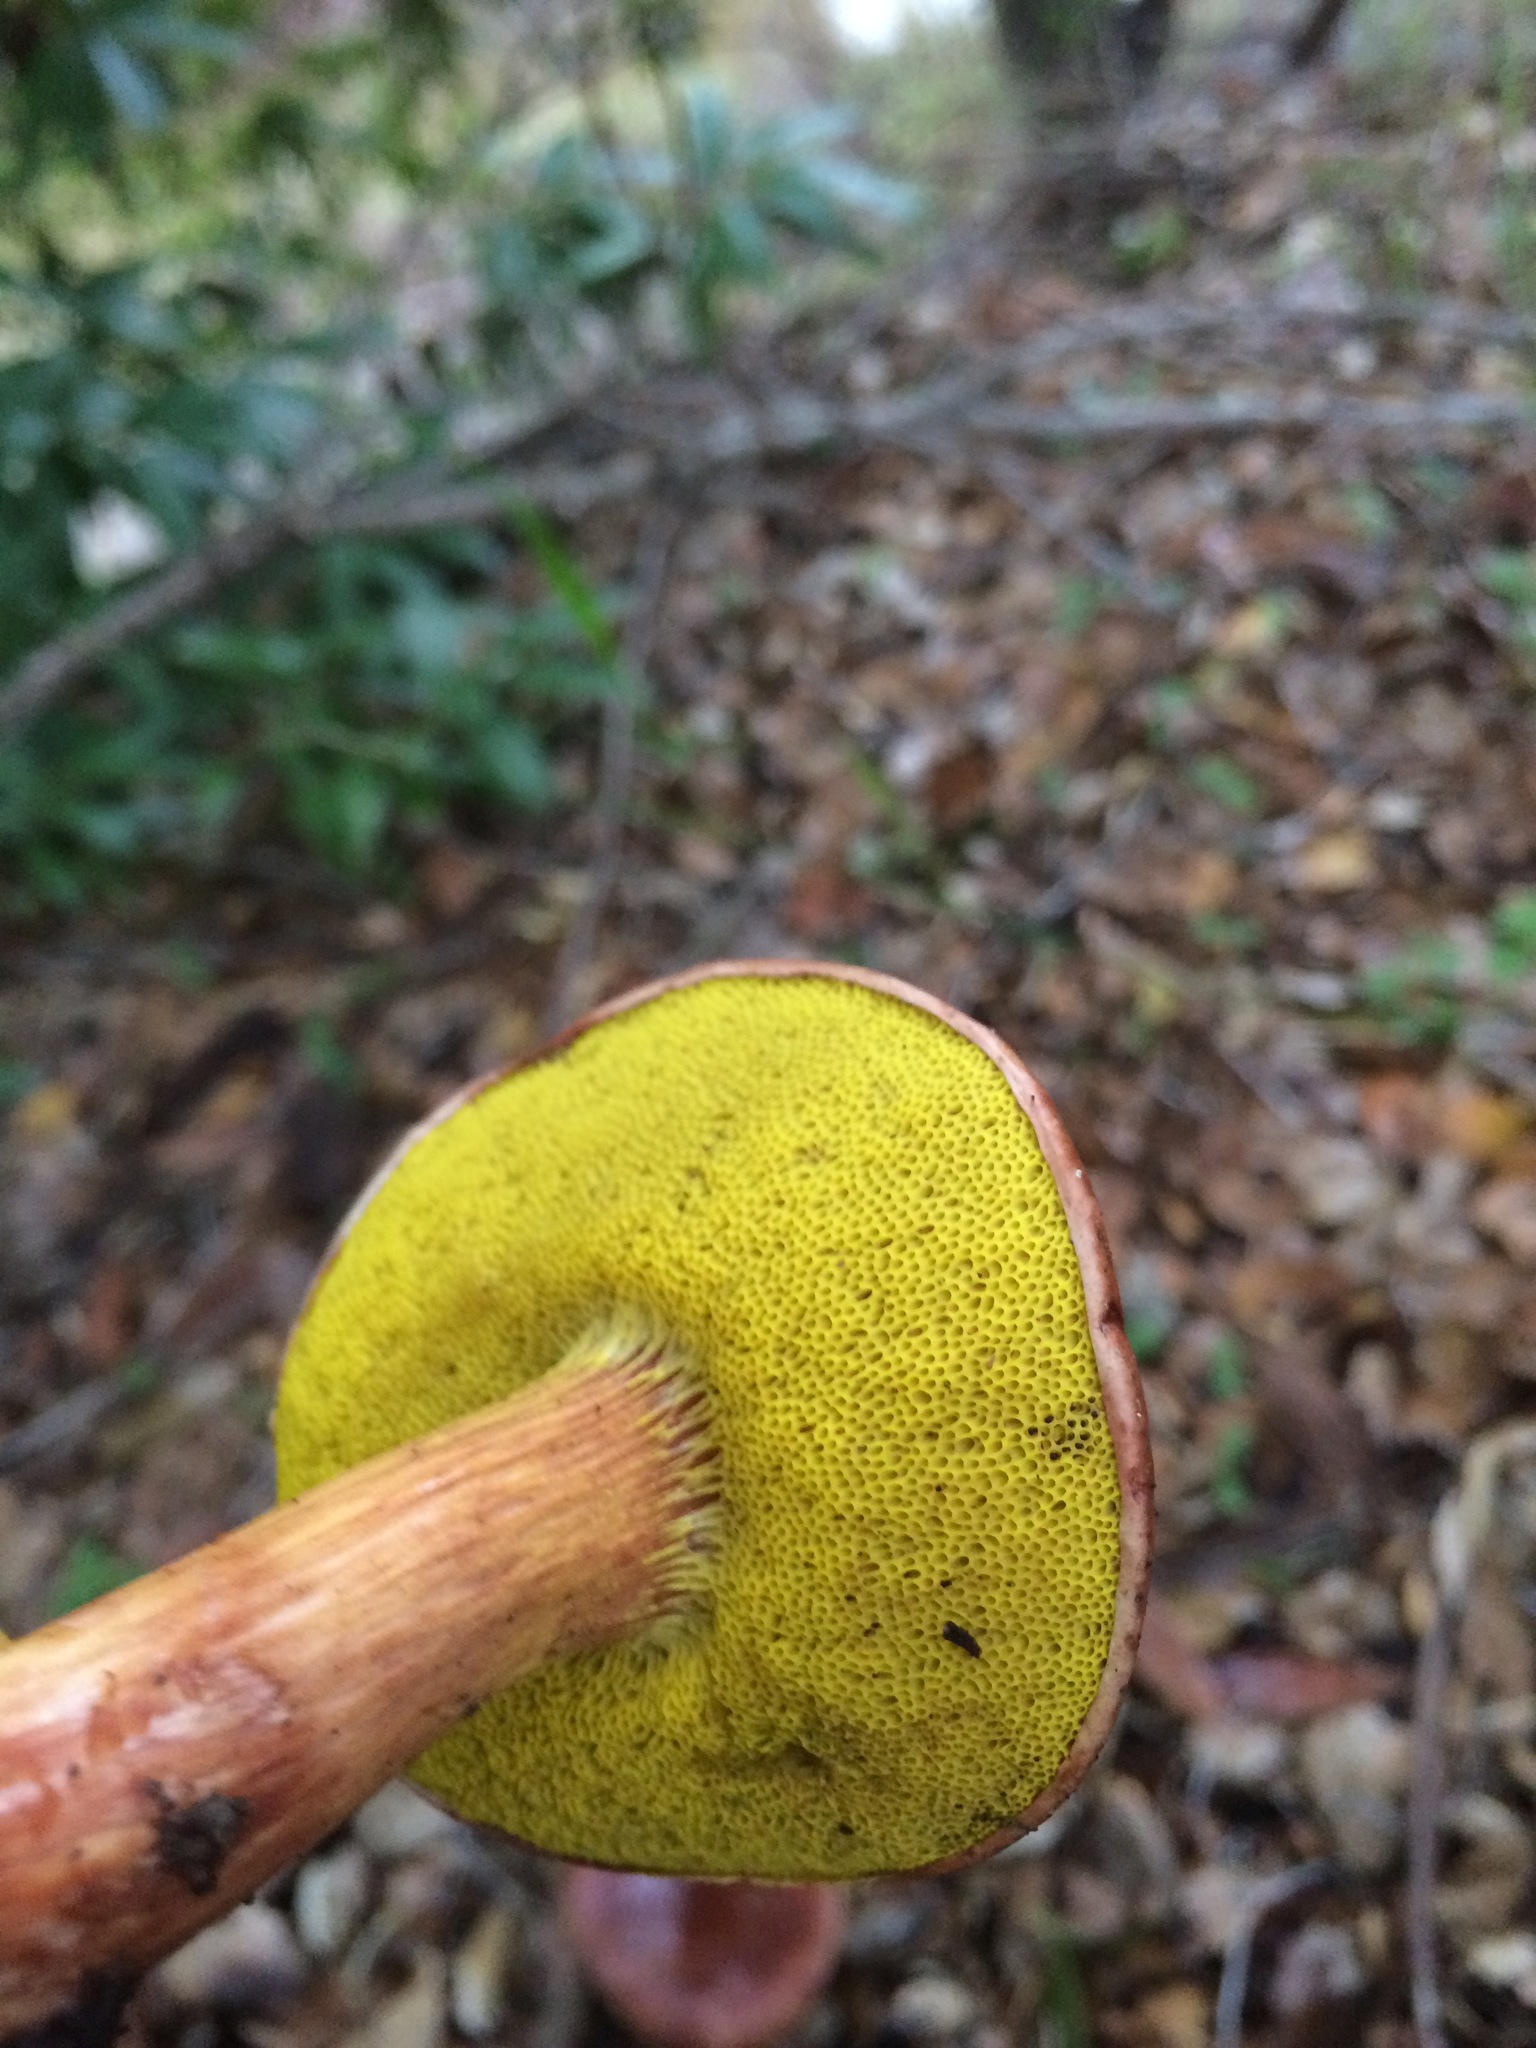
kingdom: Fungi
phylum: Basidiomycota
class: Agaricomycetes
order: Boletales
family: Boletaceae
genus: Aureoboletus
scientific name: Aureoboletus flaviporus
